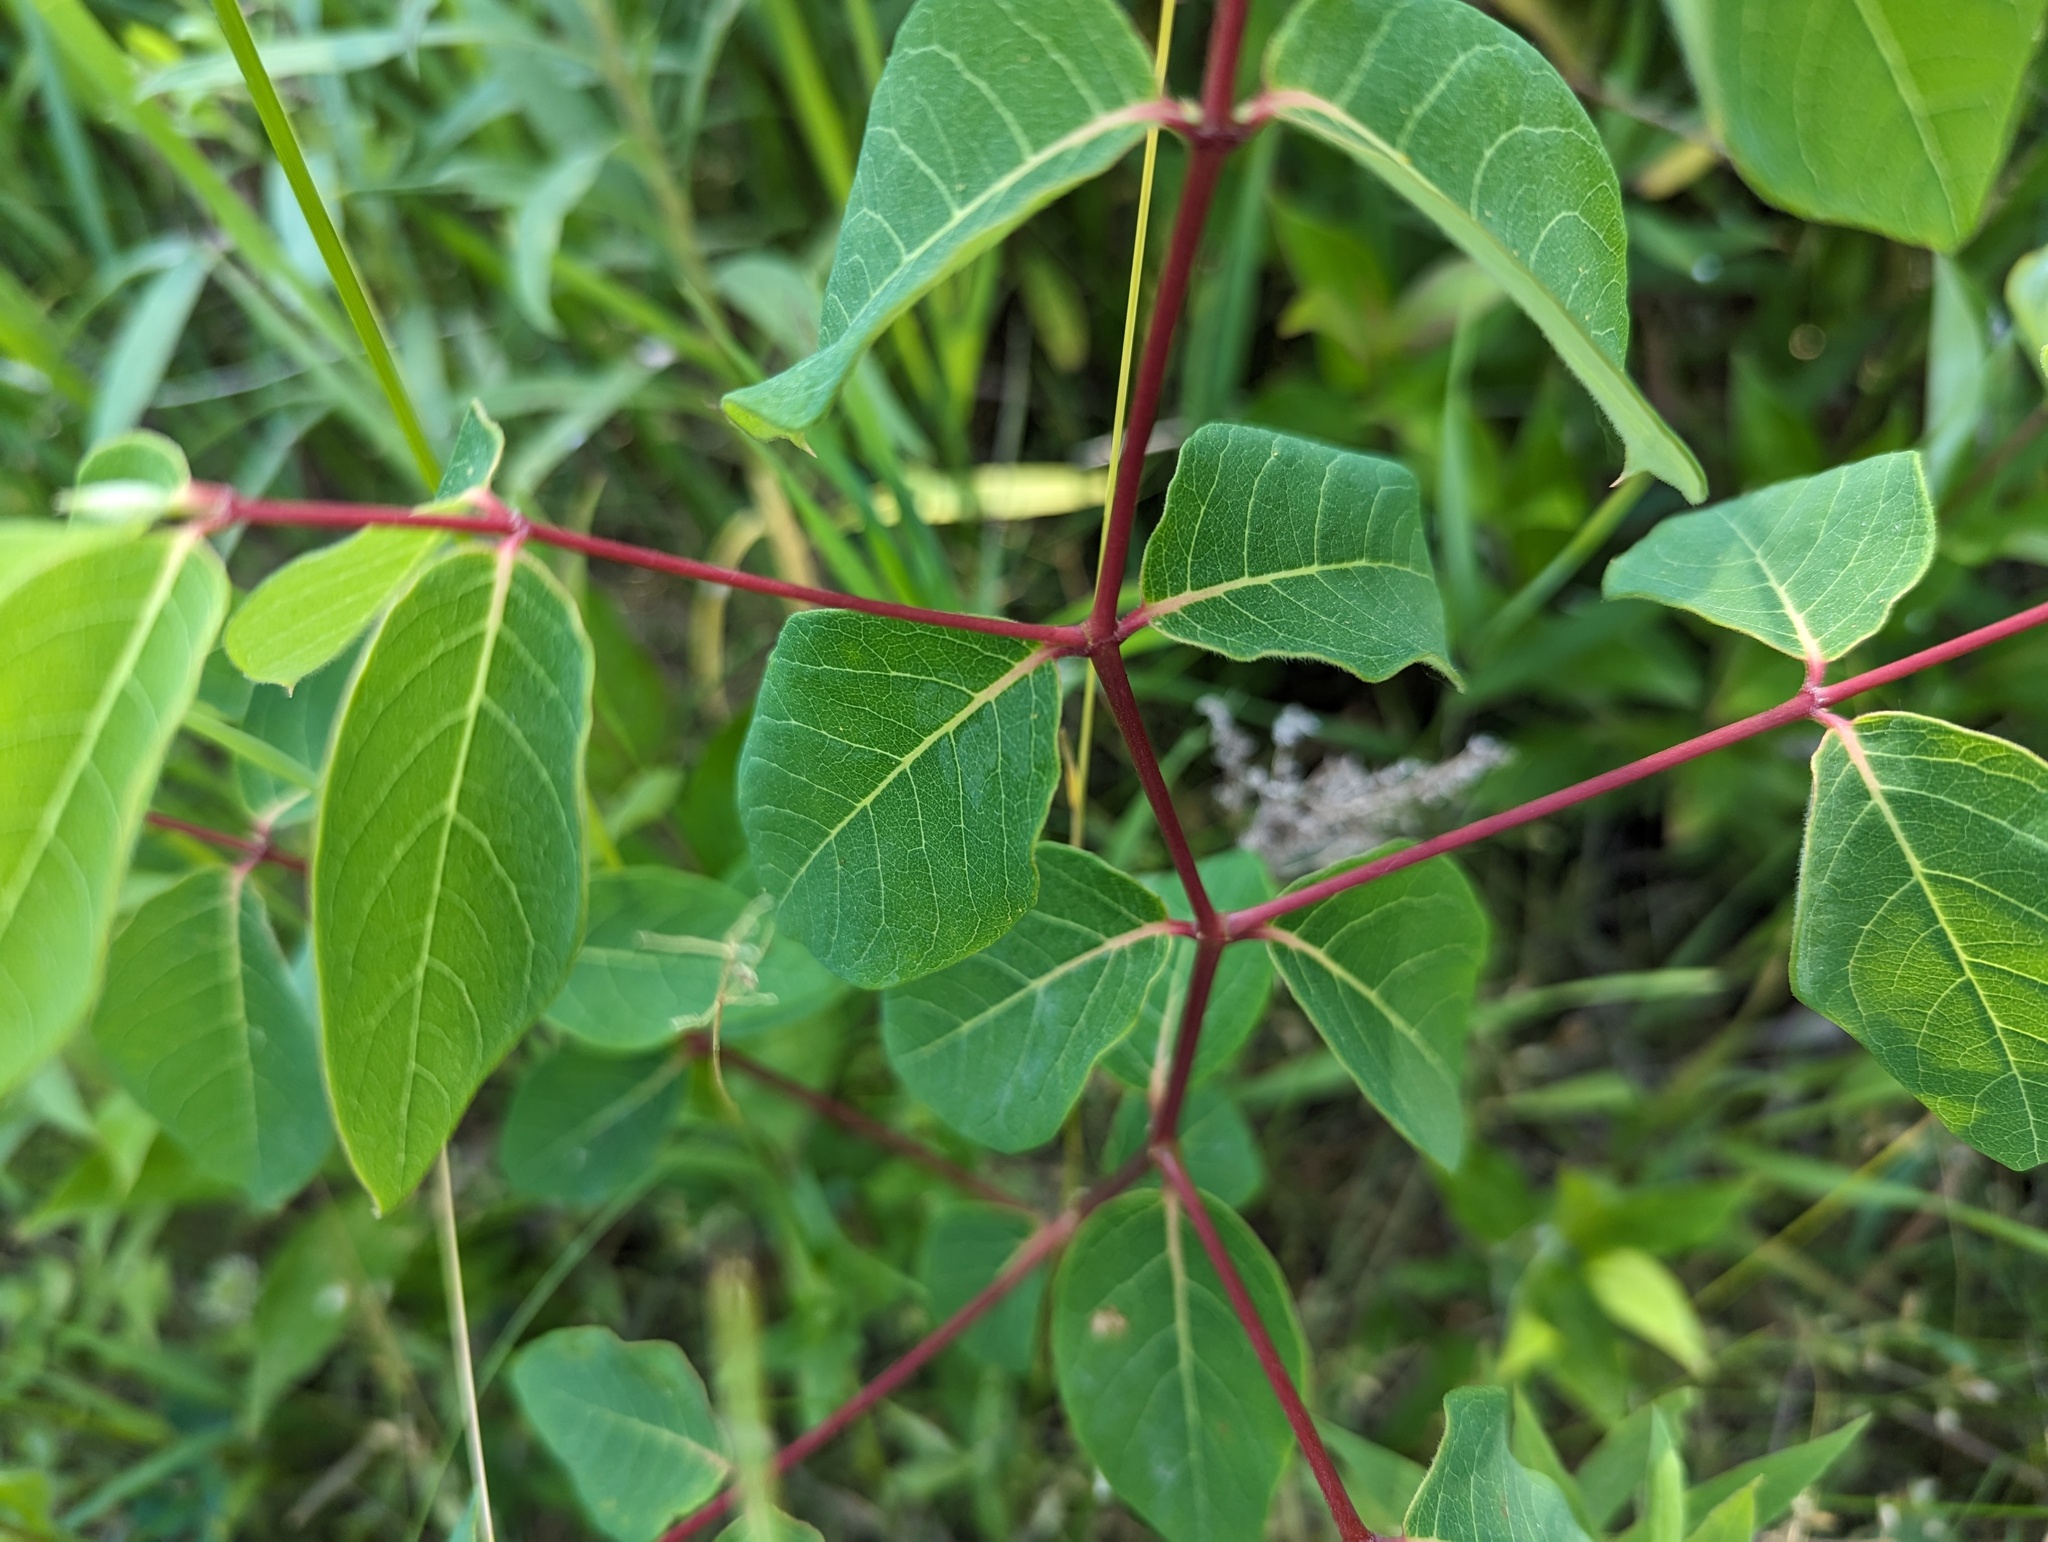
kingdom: Plantae
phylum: Tracheophyta
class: Magnoliopsida
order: Gentianales
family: Apocynaceae
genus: Apocynum
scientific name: Apocynum androsaemifolium
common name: Spreading dogbane
